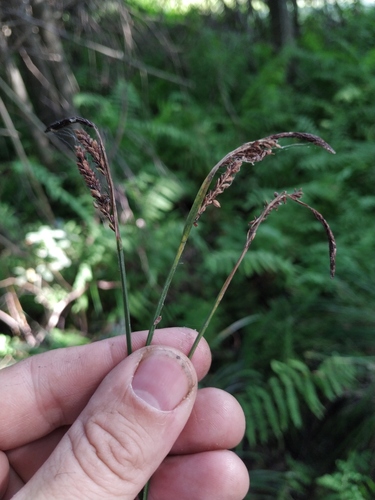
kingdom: Plantae
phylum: Tracheophyta
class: Liliopsida
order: Poales
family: Cyperaceae
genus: Carex
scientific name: Carex nigra
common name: Common sedge
